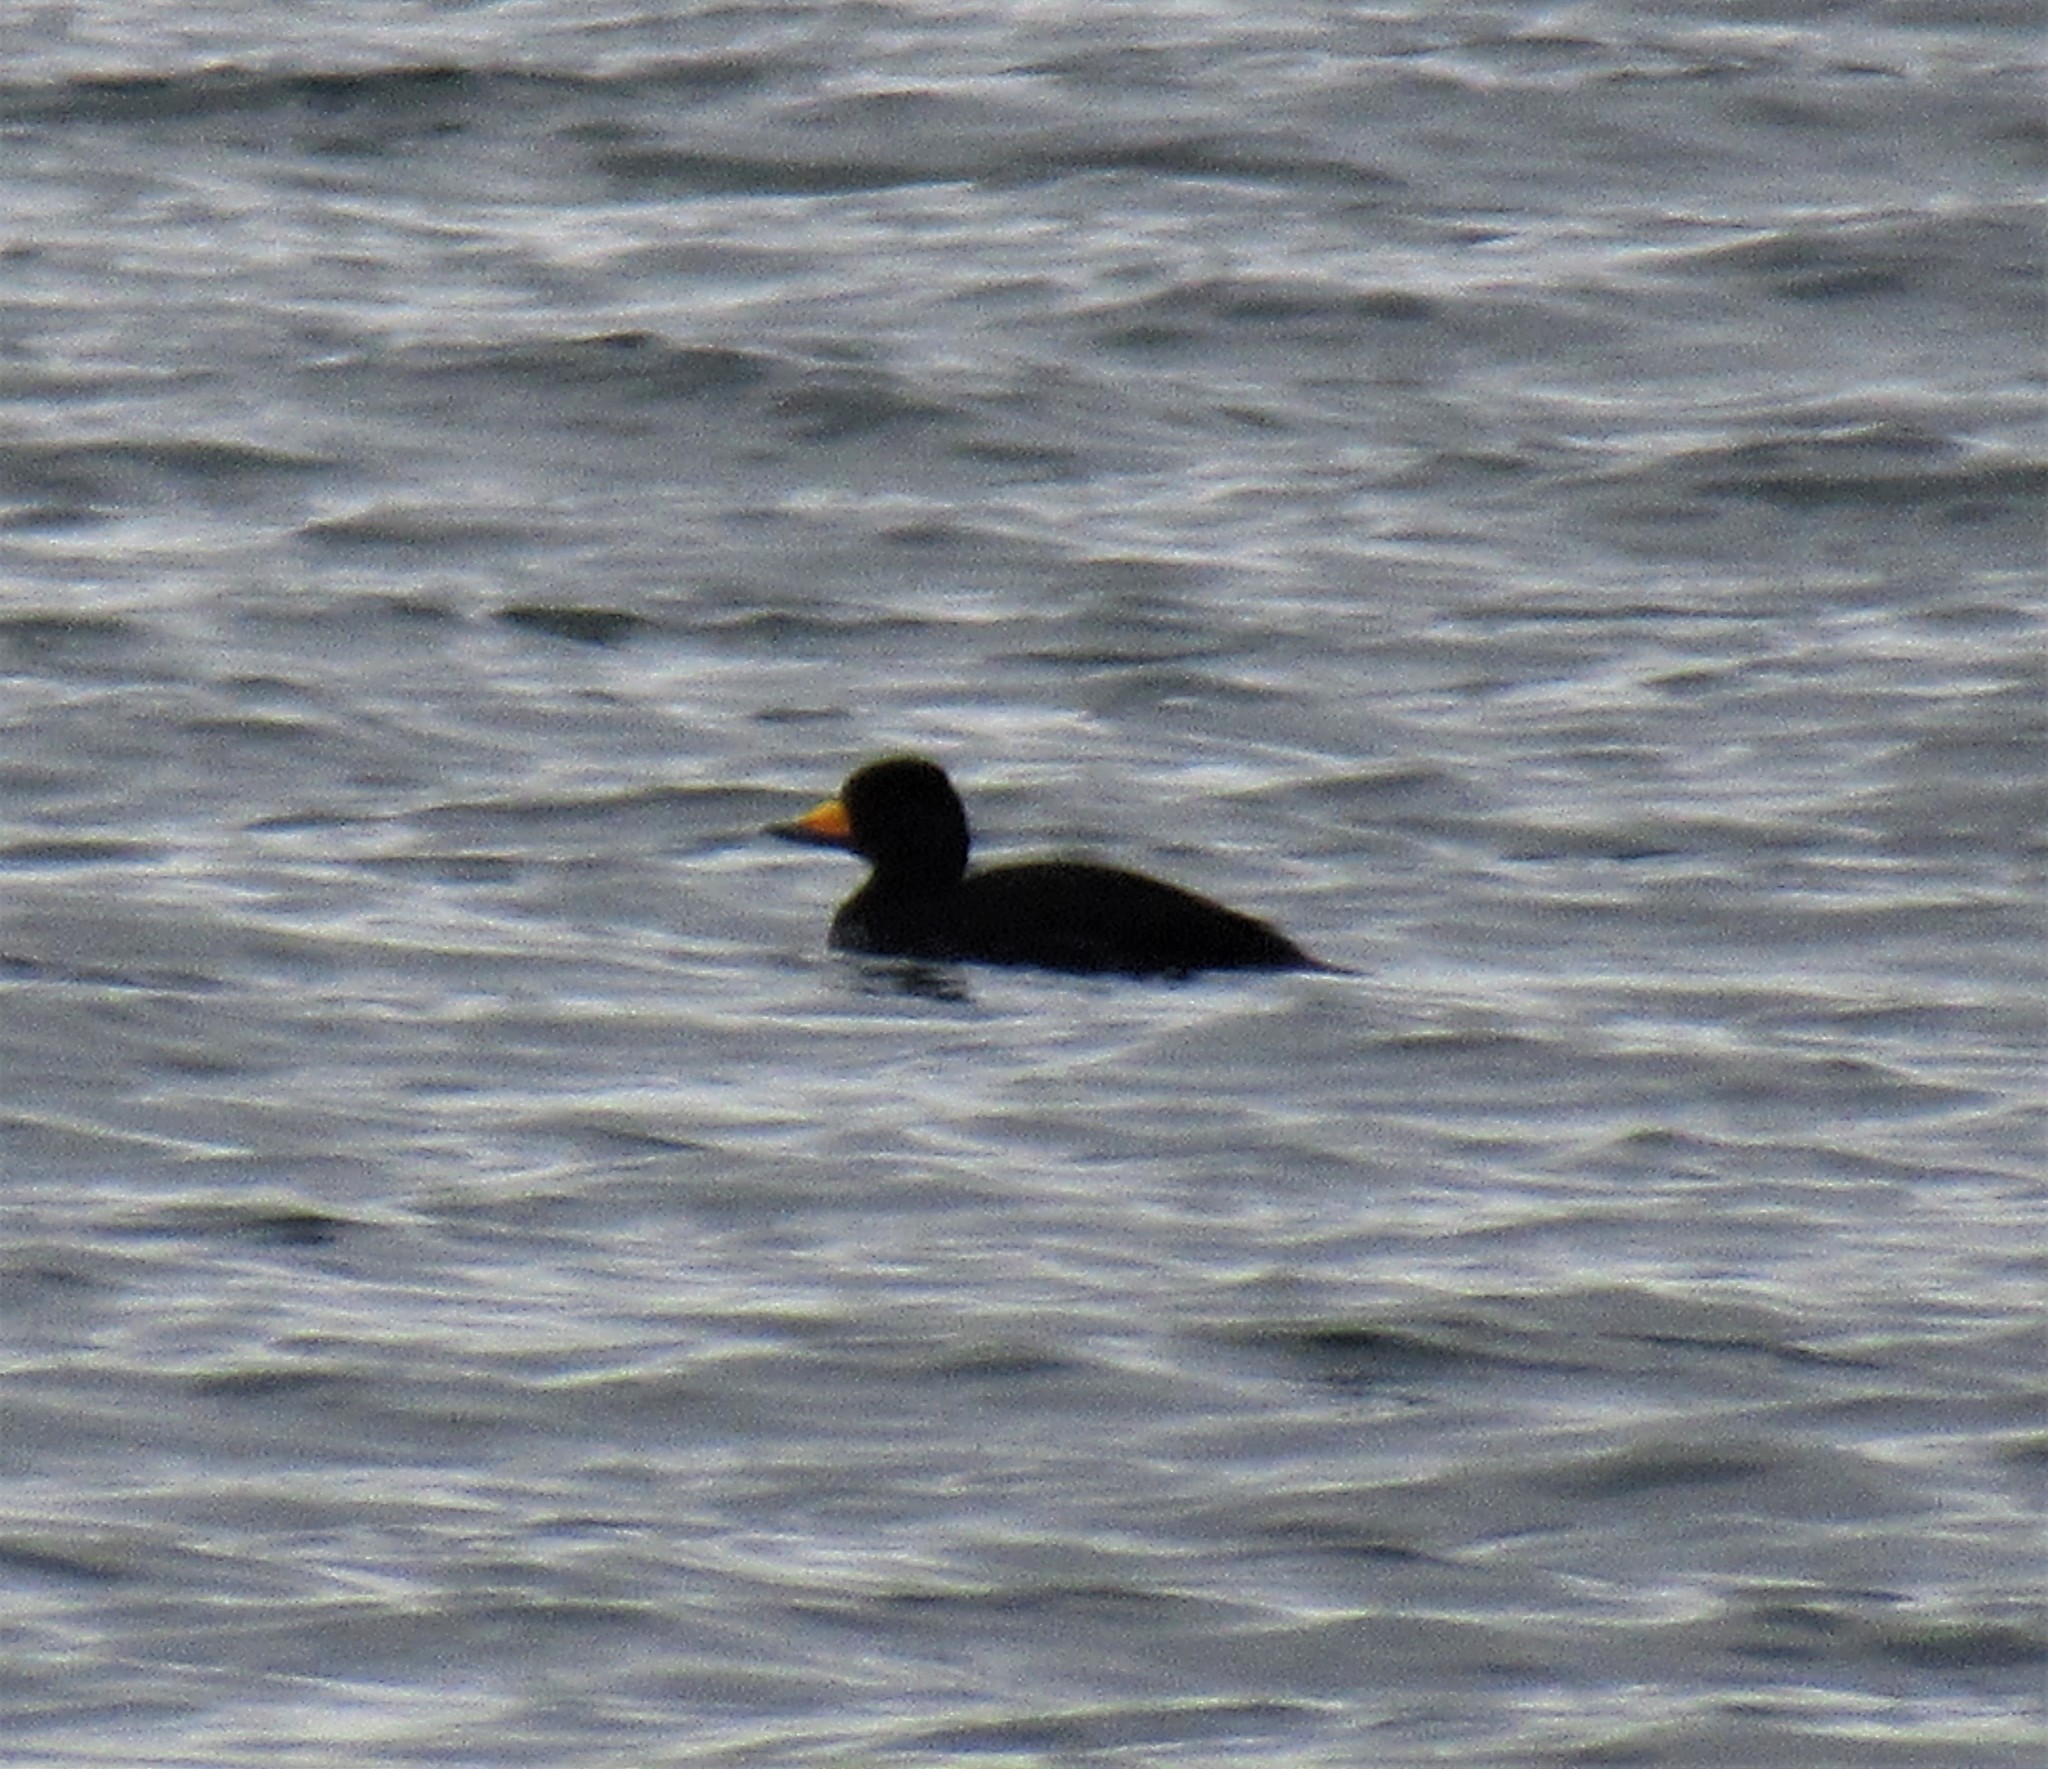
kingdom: Animalia
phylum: Chordata
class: Aves
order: Anseriformes
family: Anatidae
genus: Melanitta
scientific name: Melanitta americana
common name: Black scoter
